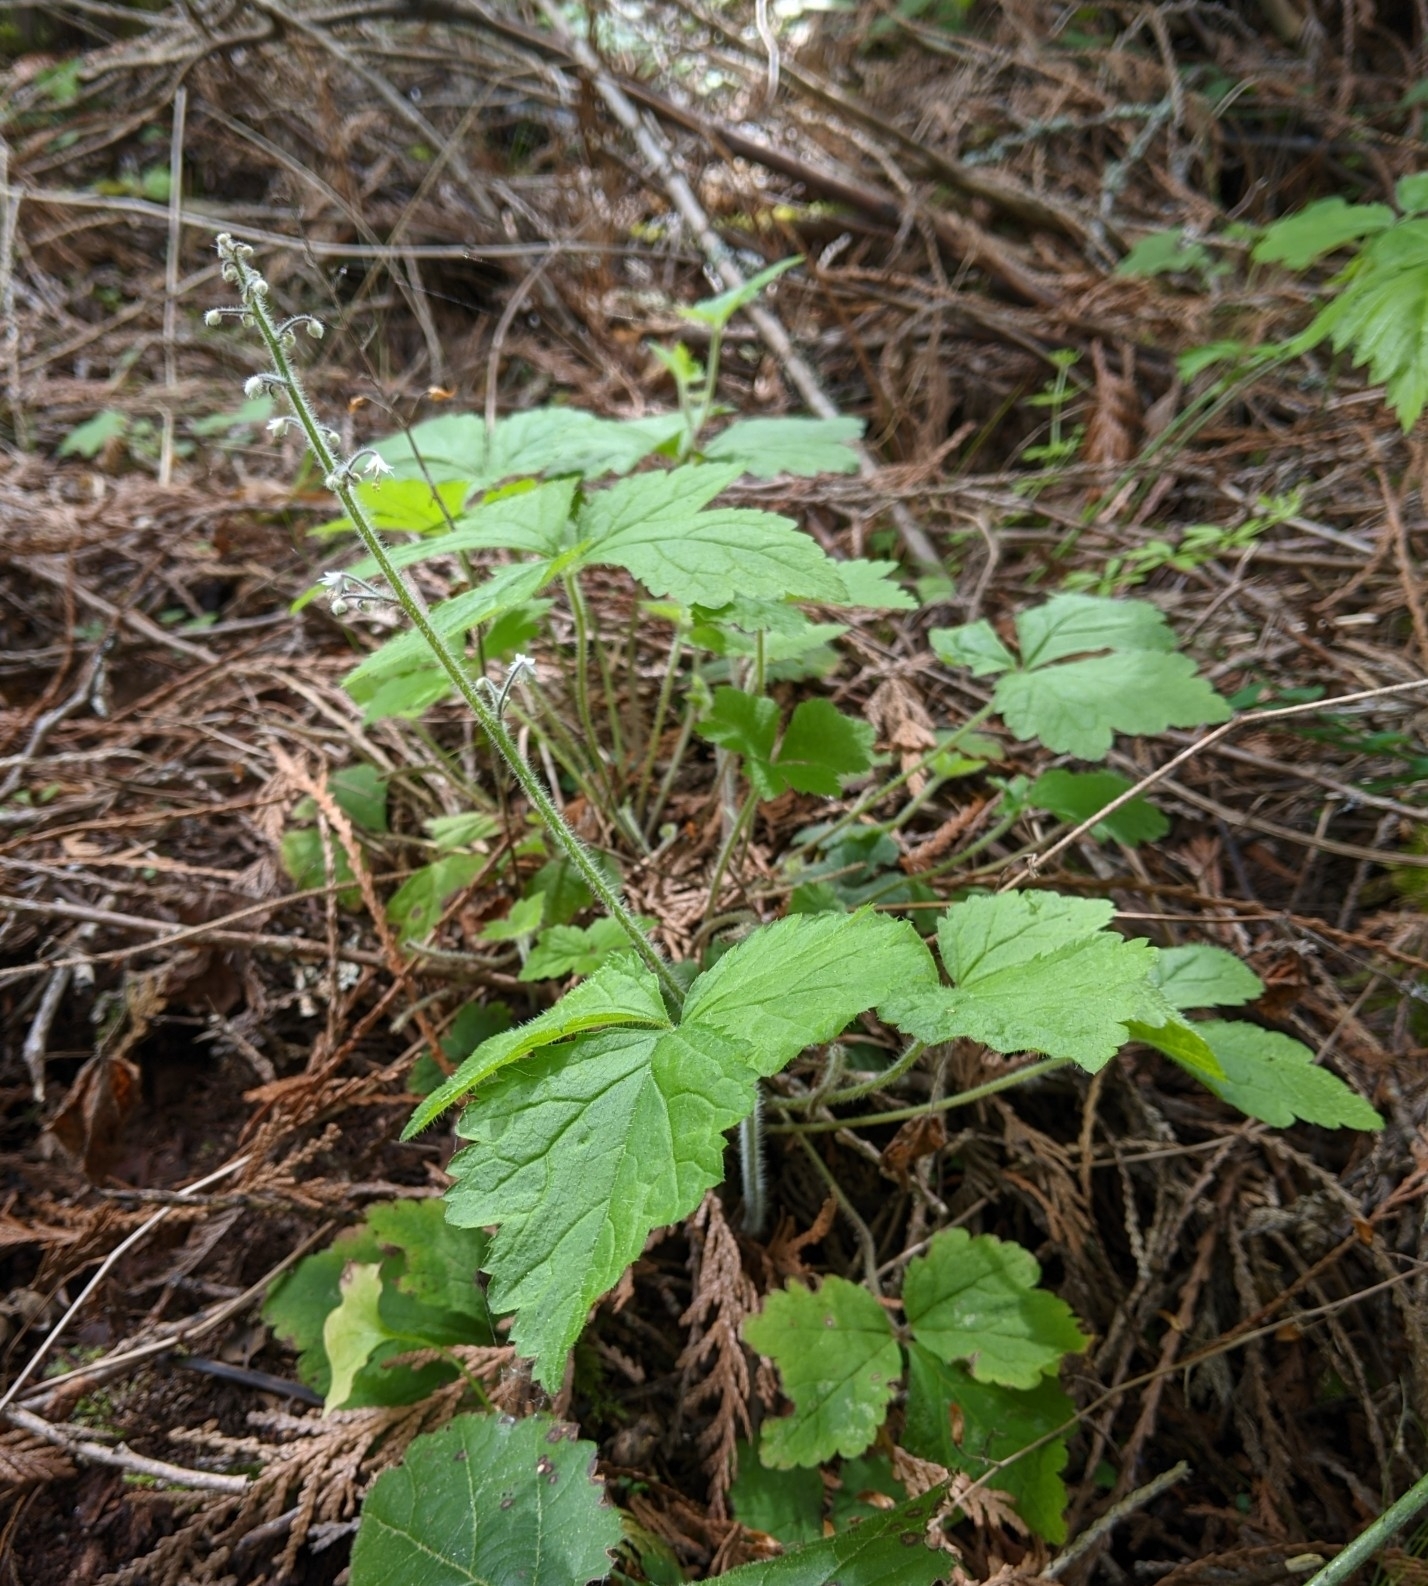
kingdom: Plantae
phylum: Tracheophyta
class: Magnoliopsida
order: Saxifragales
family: Saxifragaceae
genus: Tiarella
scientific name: Tiarella trifoliata
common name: Sugar-scoop
